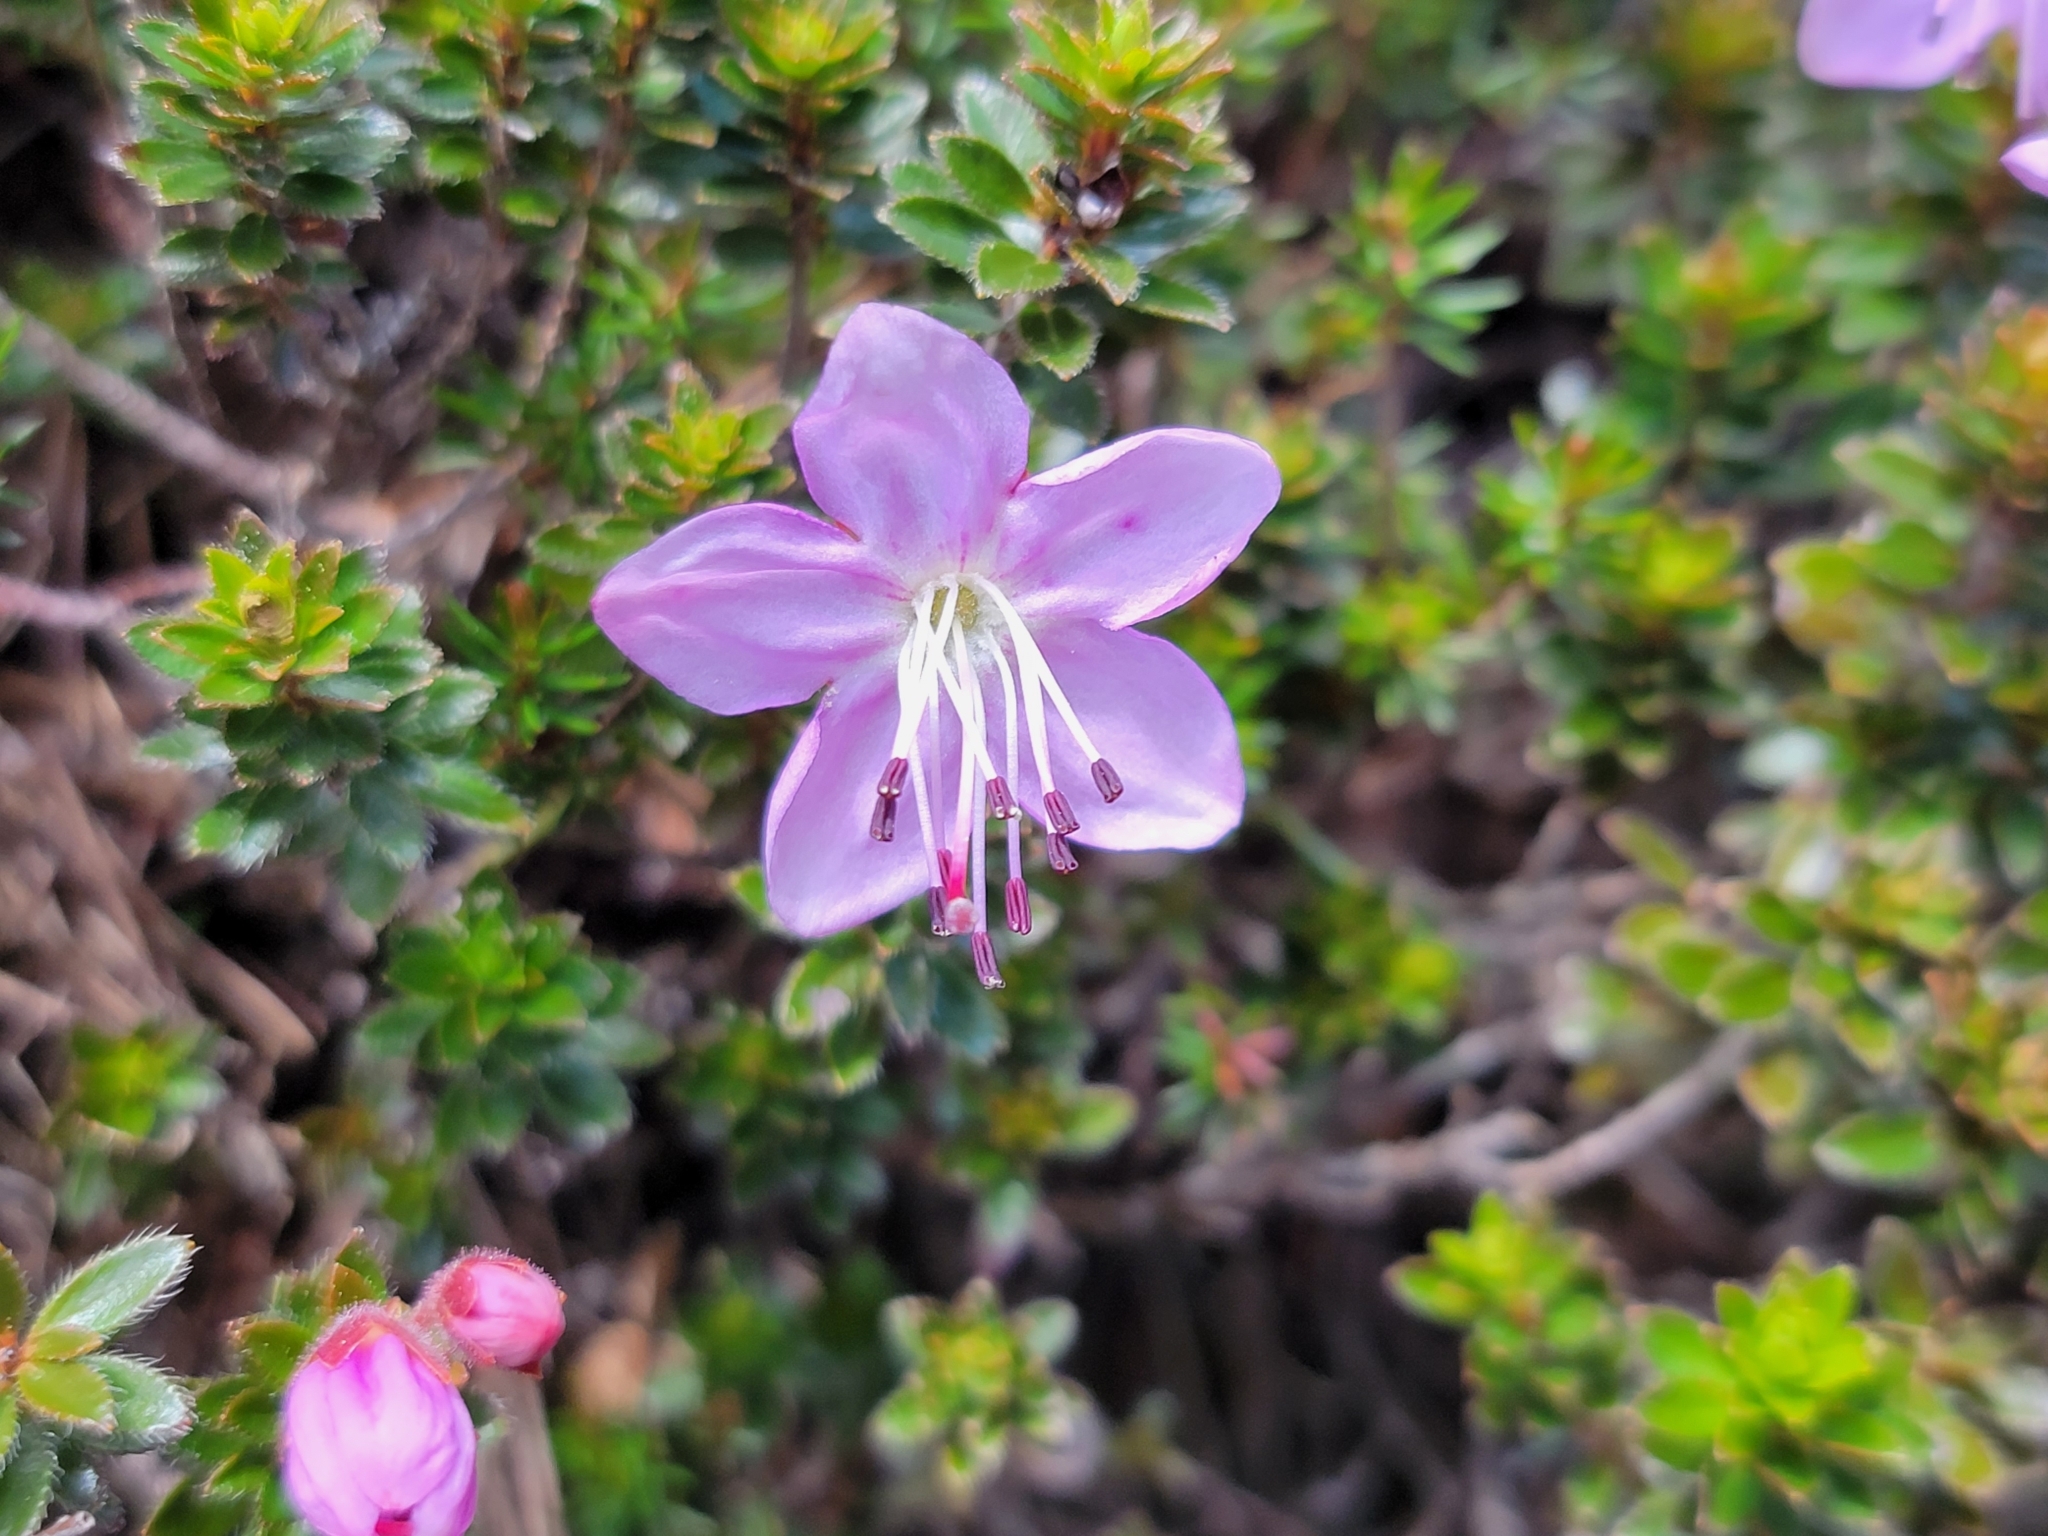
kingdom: Plantae
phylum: Tracheophyta
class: Magnoliopsida
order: Ericales
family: Ericaceae
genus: Rhodothamnus
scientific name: Rhodothamnus chamaecistus
